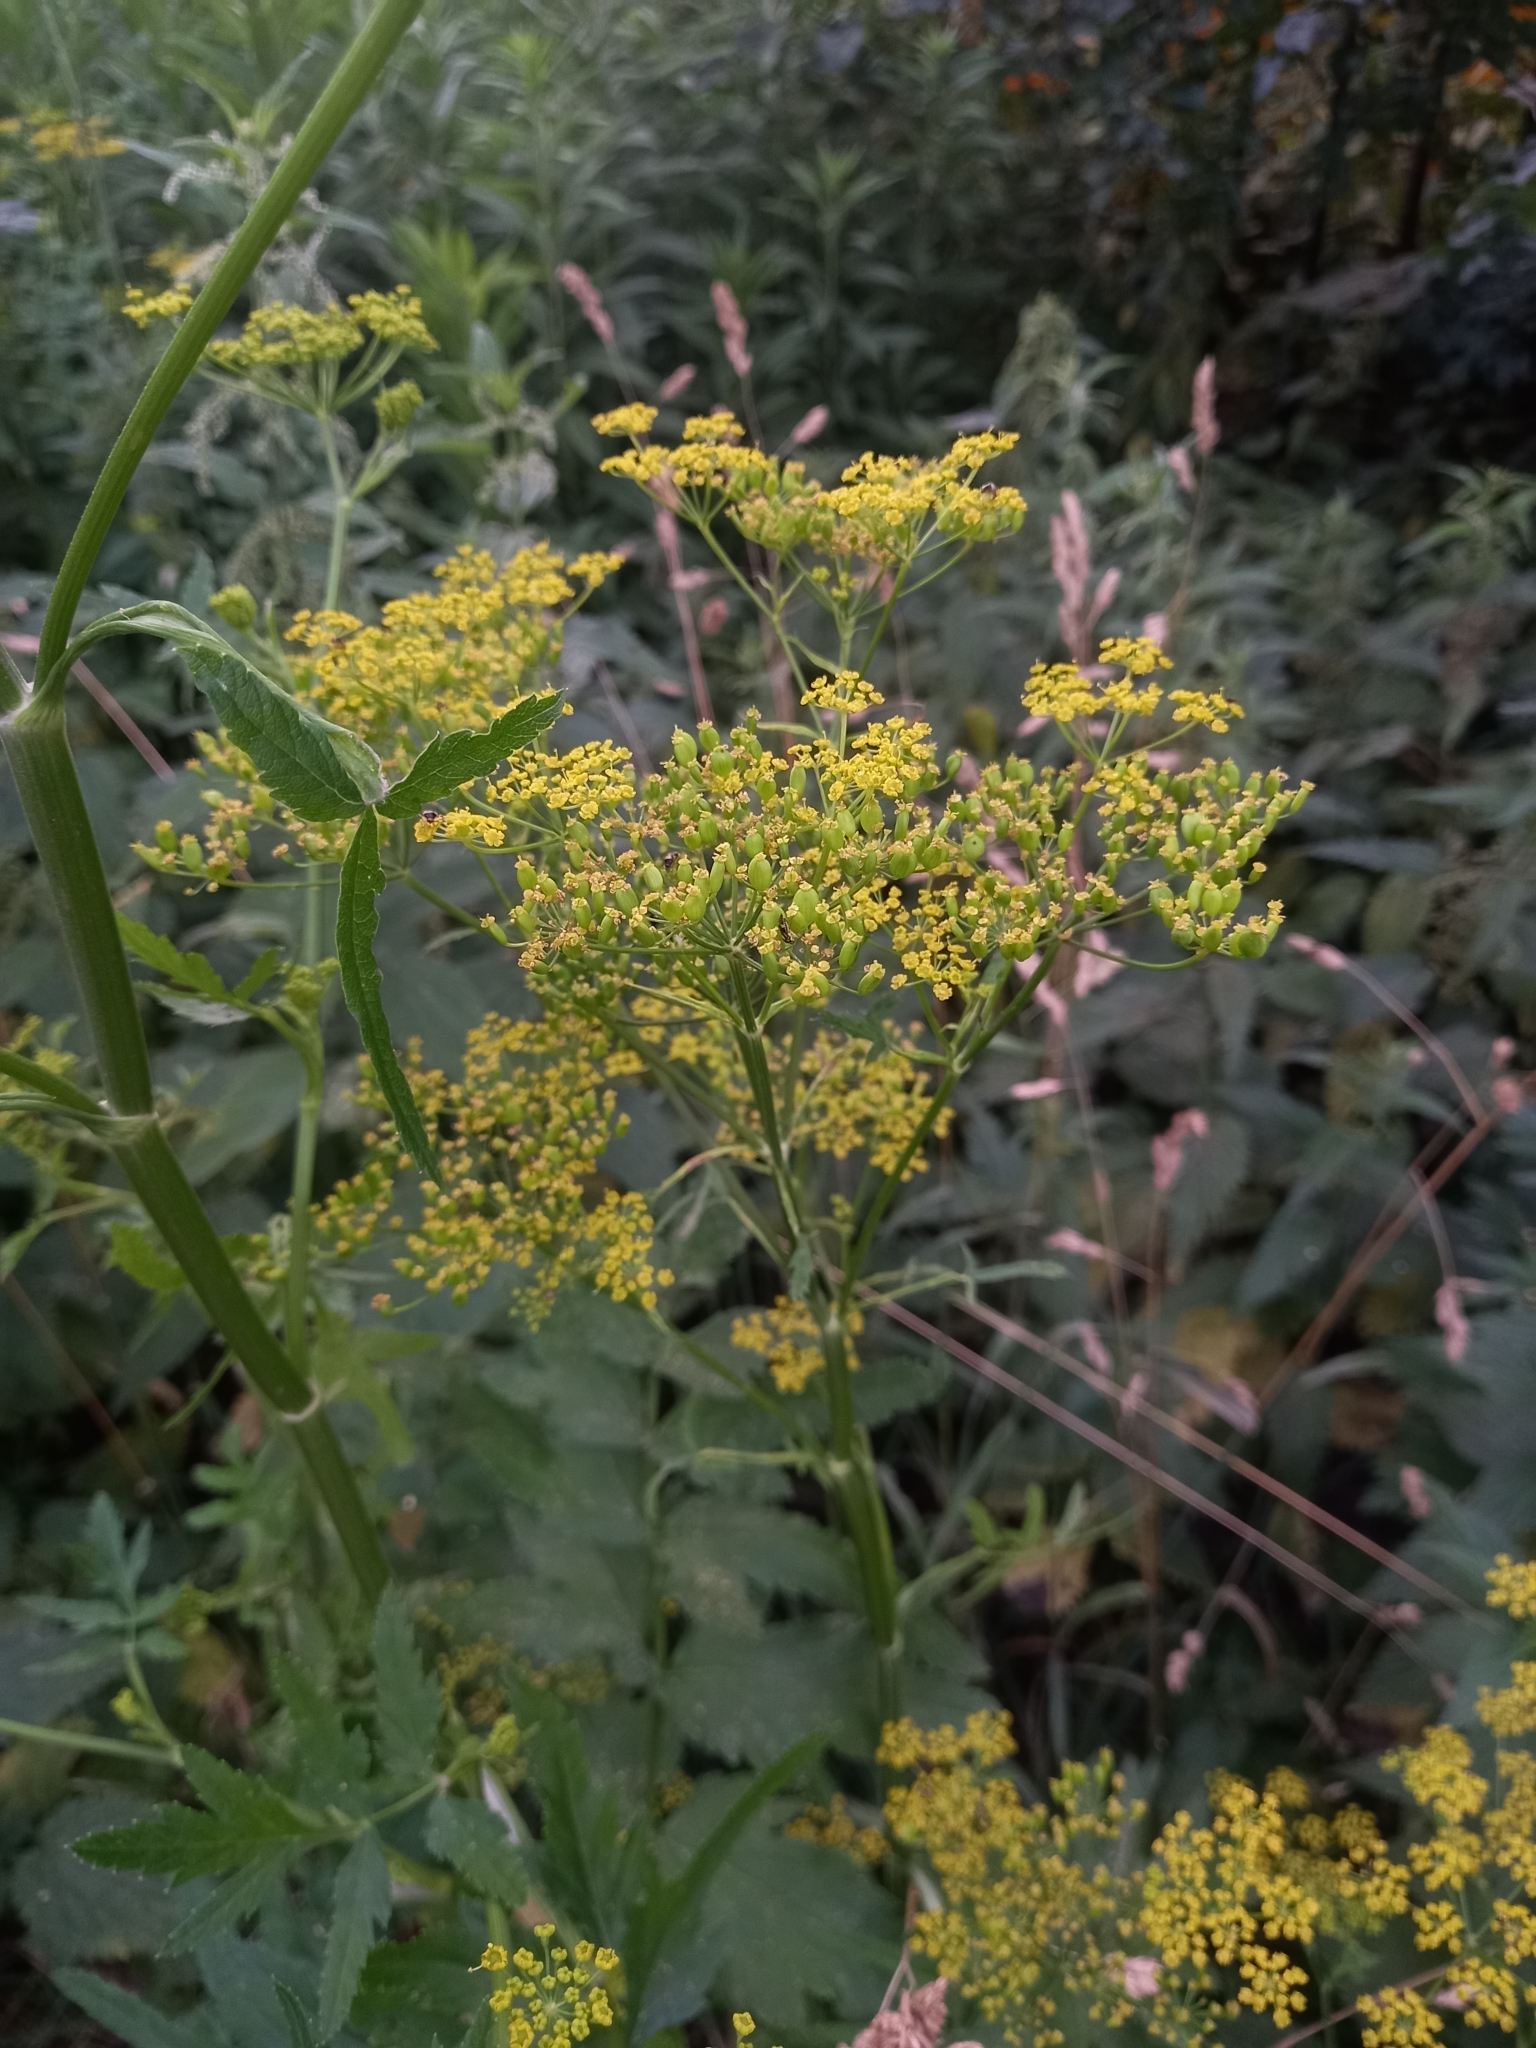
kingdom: Plantae
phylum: Tracheophyta
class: Magnoliopsida
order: Apiales
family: Apiaceae
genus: Pastinaca
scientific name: Pastinaca sativa
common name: Wild parsnip
